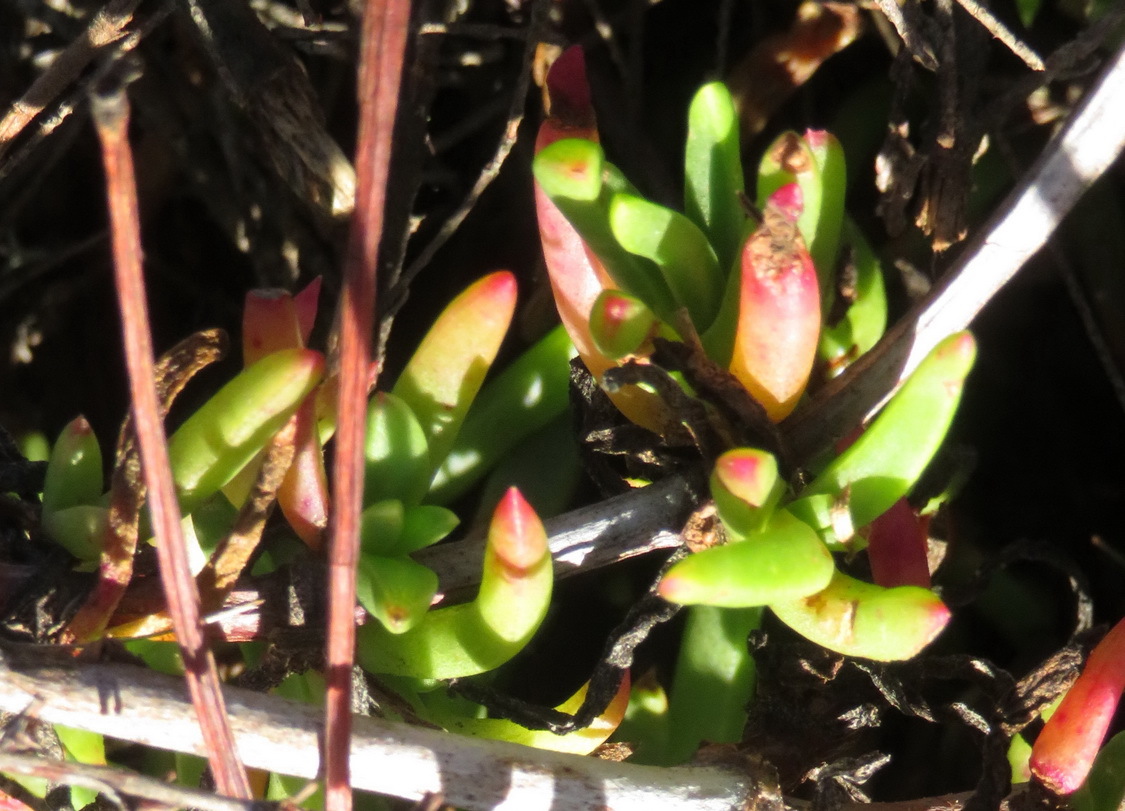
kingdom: Plantae
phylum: Tracheophyta
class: Magnoliopsida
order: Caryophyllales
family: Aizoaceae
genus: Ruschia
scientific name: Ruschia duthiae
